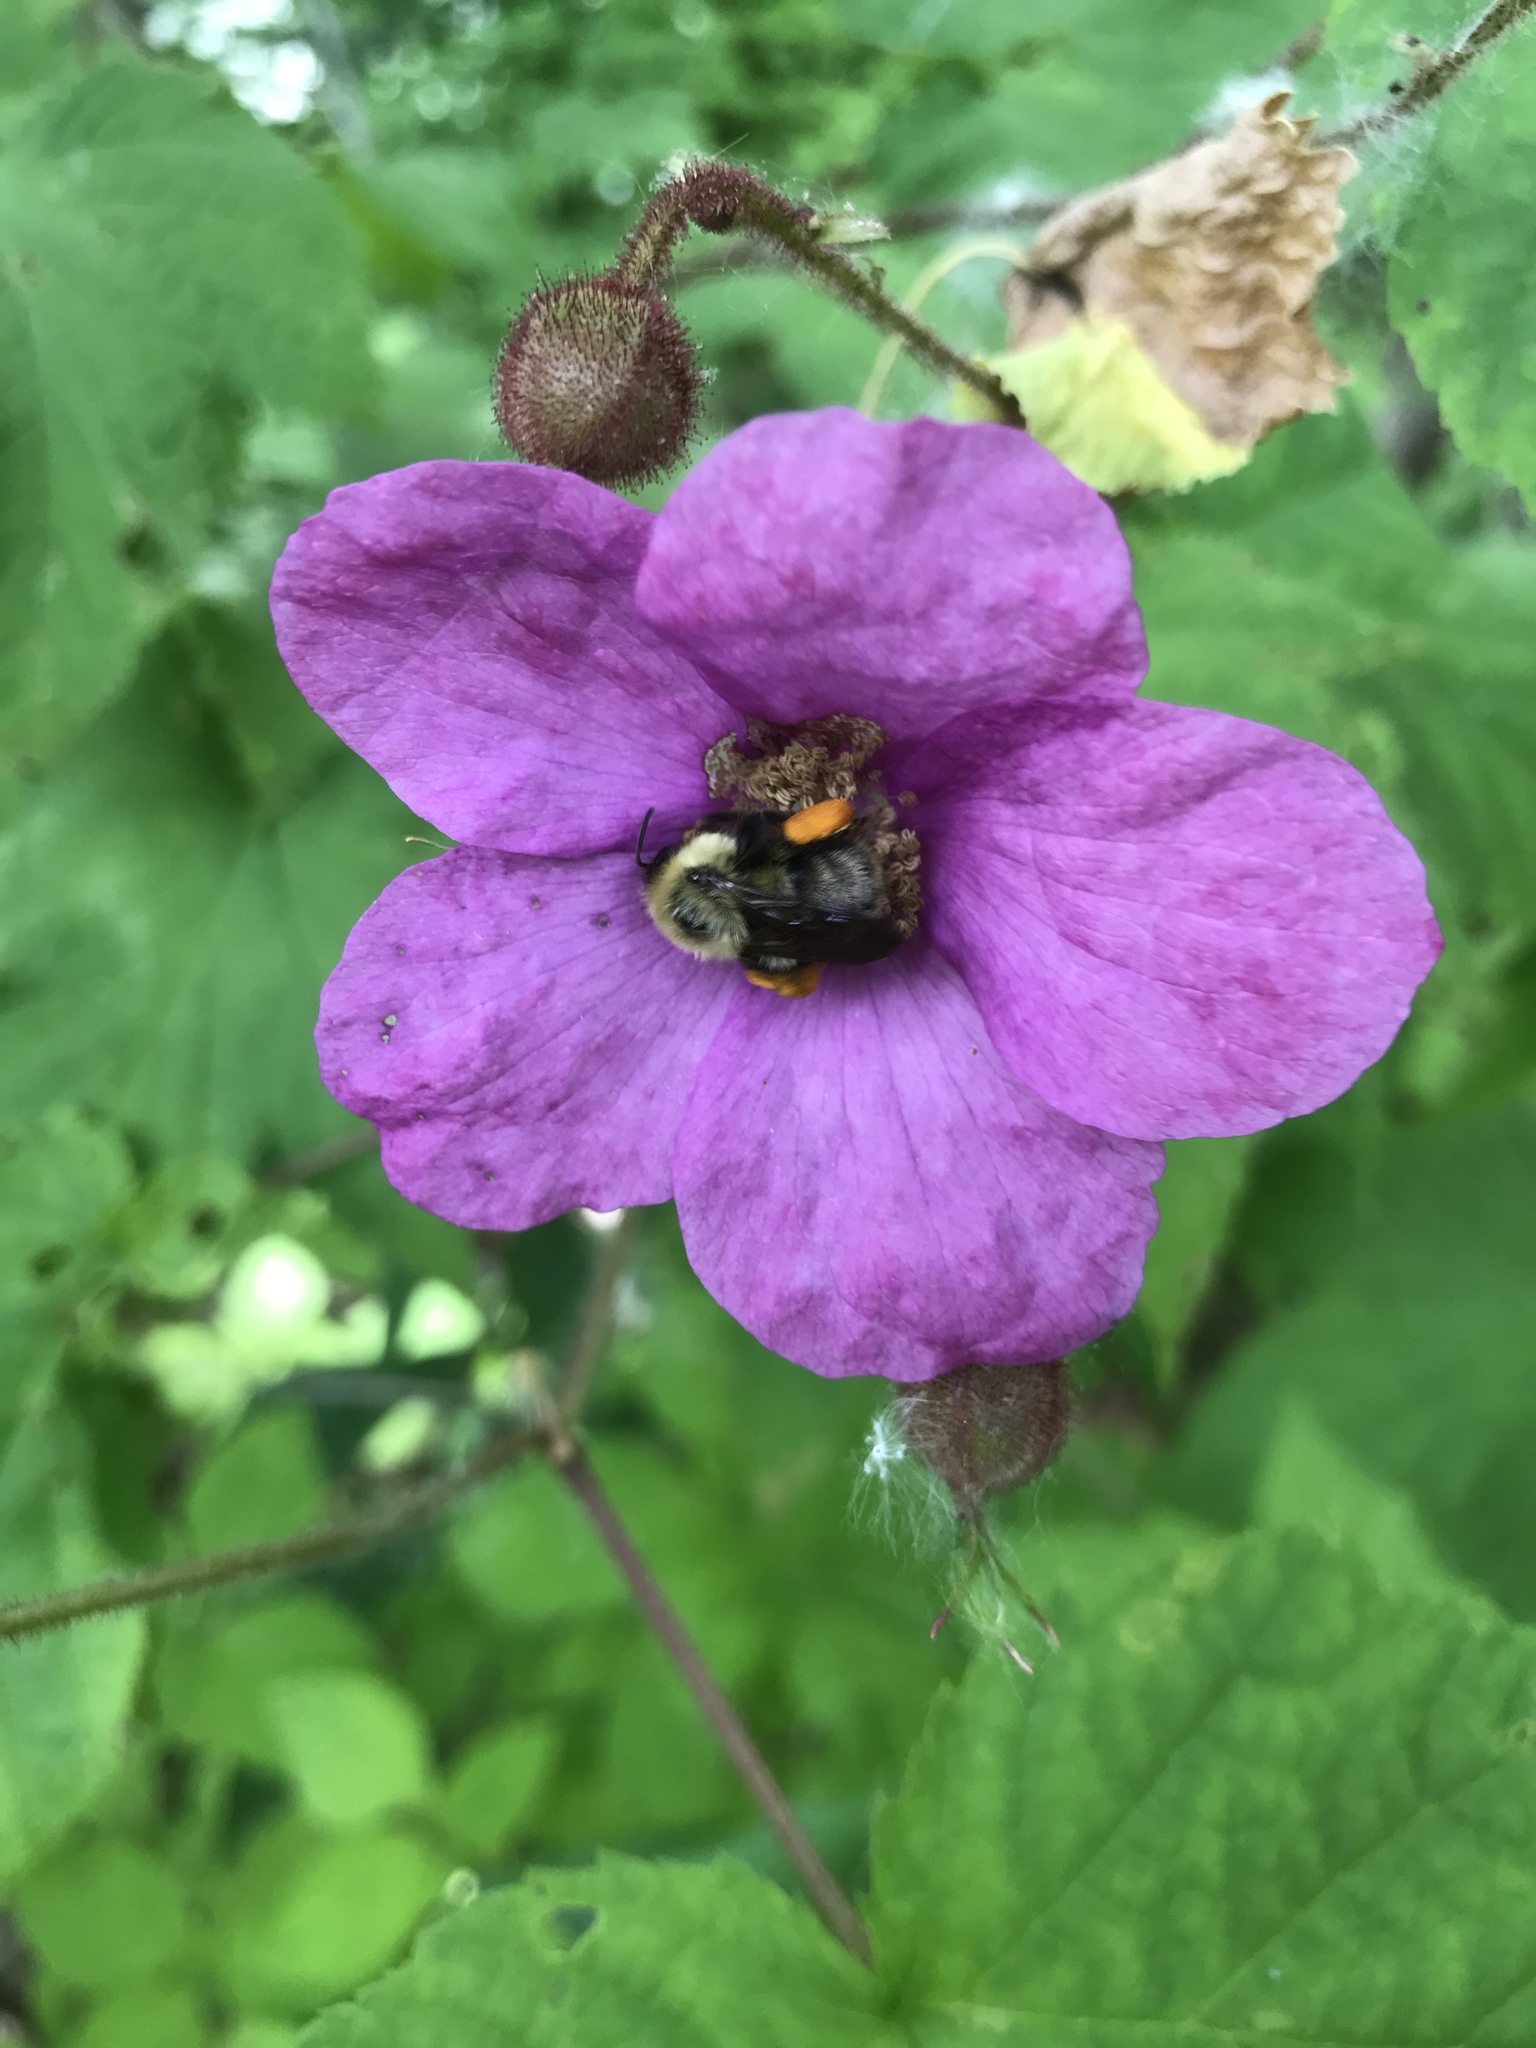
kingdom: Plantae
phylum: Tracheophyta
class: Magnoliopsida
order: Rosales
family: Rosaceae
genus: Rubus
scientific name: Rubus odoratus
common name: Purple-flowered raspberry
